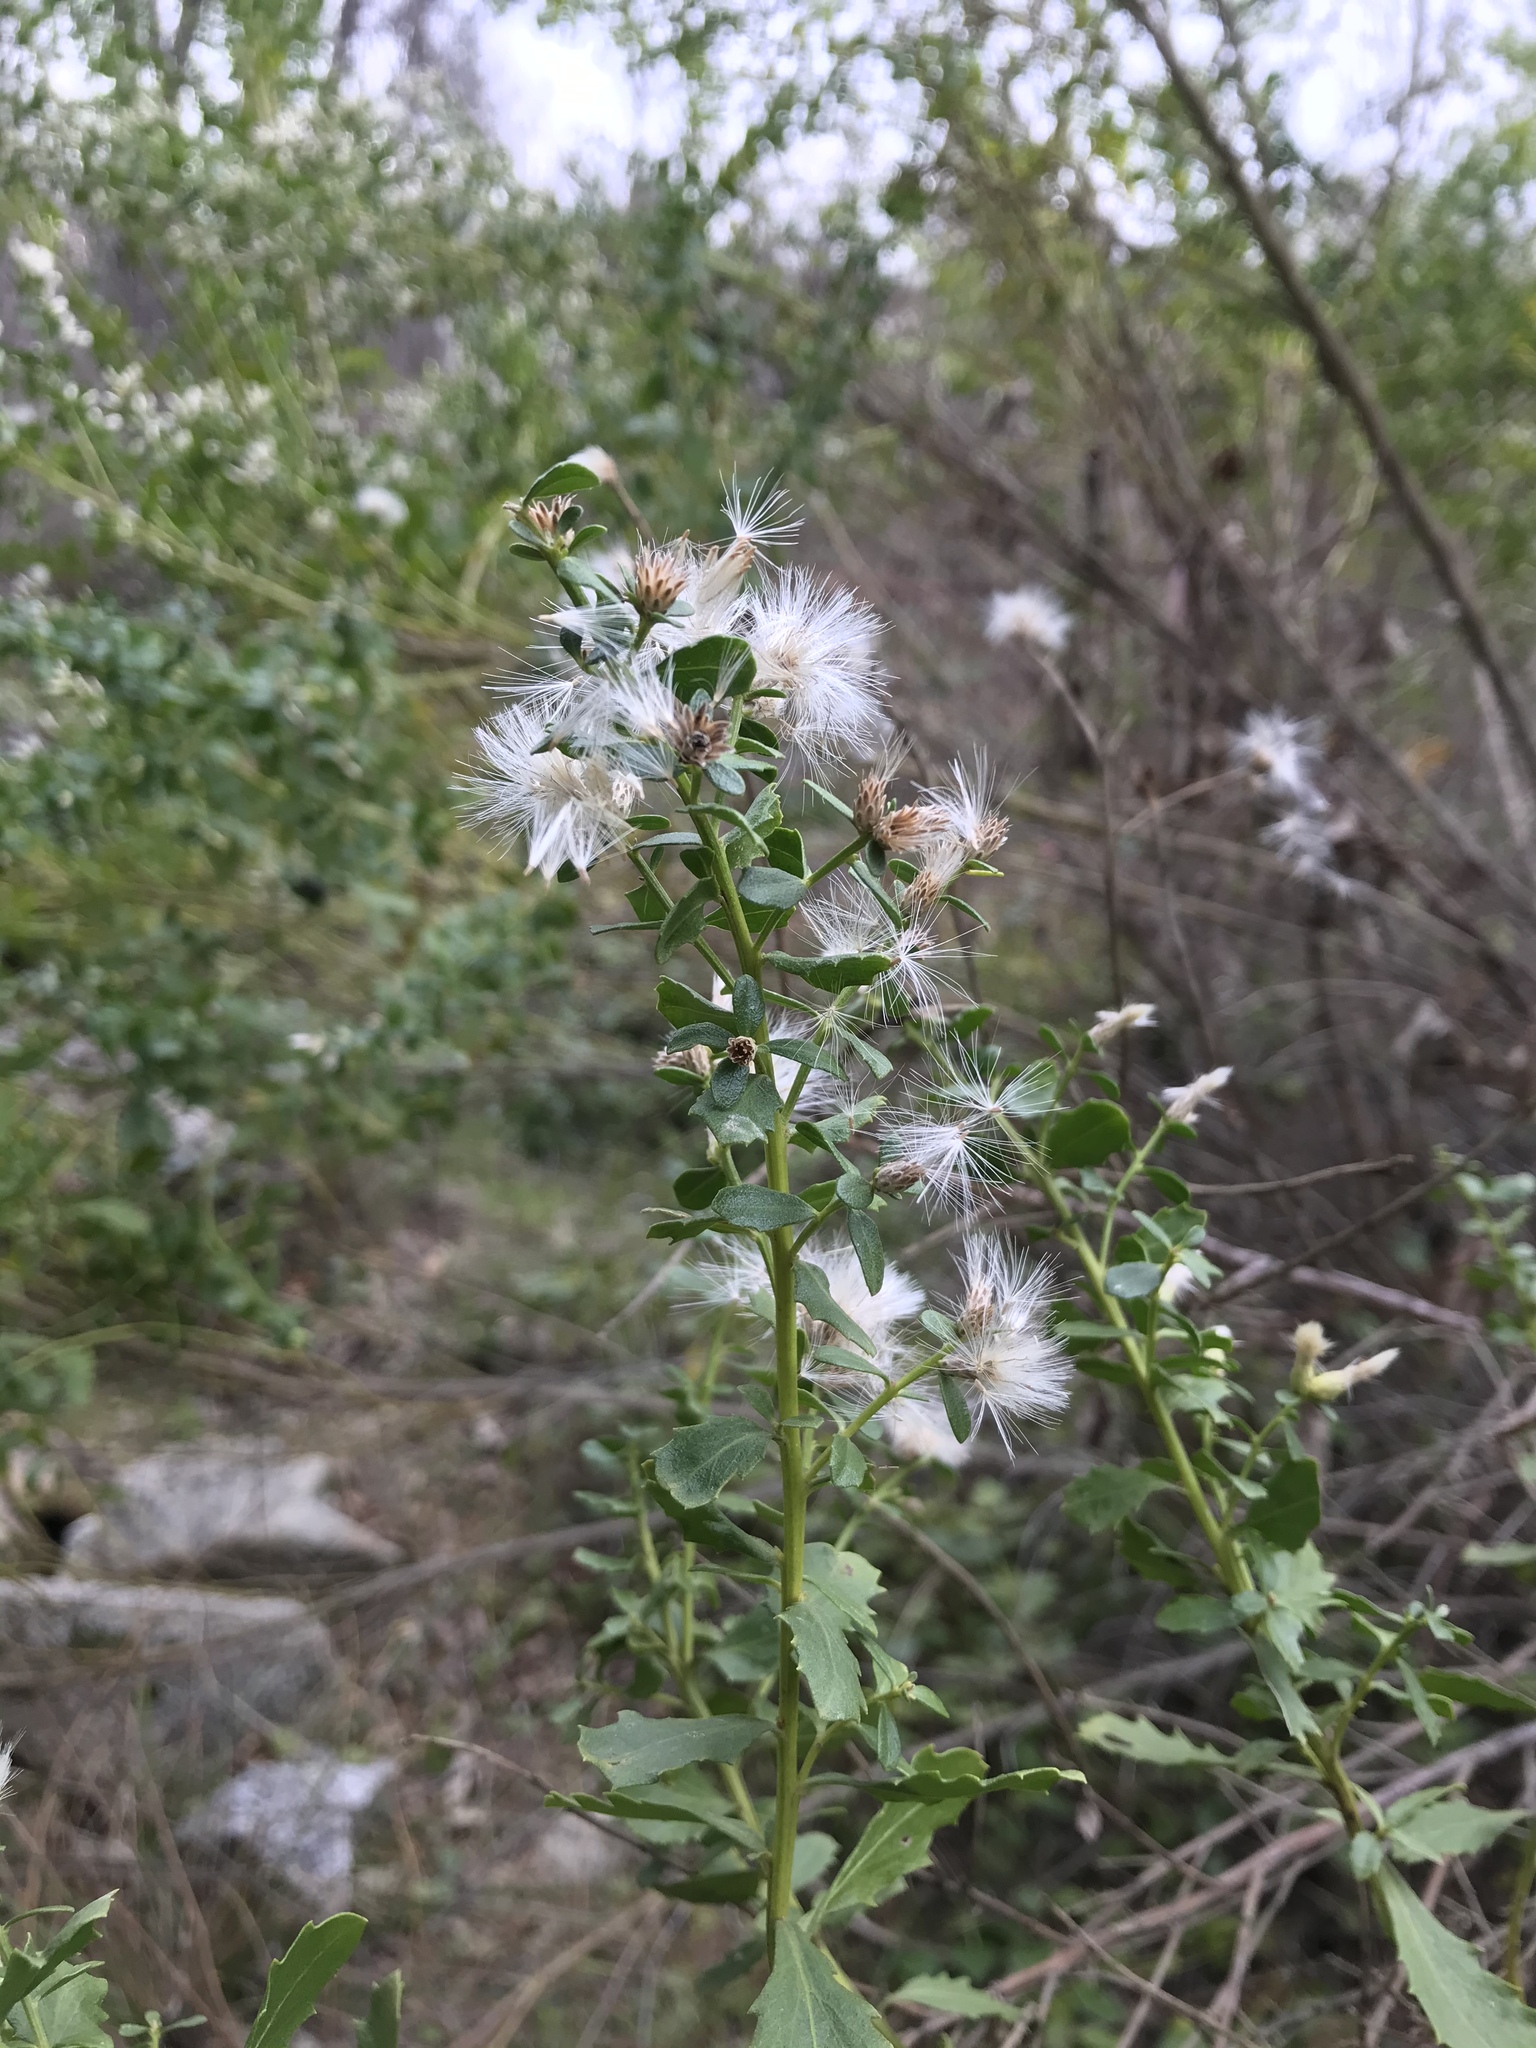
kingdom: Plantae
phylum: Tracheophyta
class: Magnoliopsida
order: Asterales
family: Asteraceae
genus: Baccharis
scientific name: Baccharis pilularis
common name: Coyotebrush
